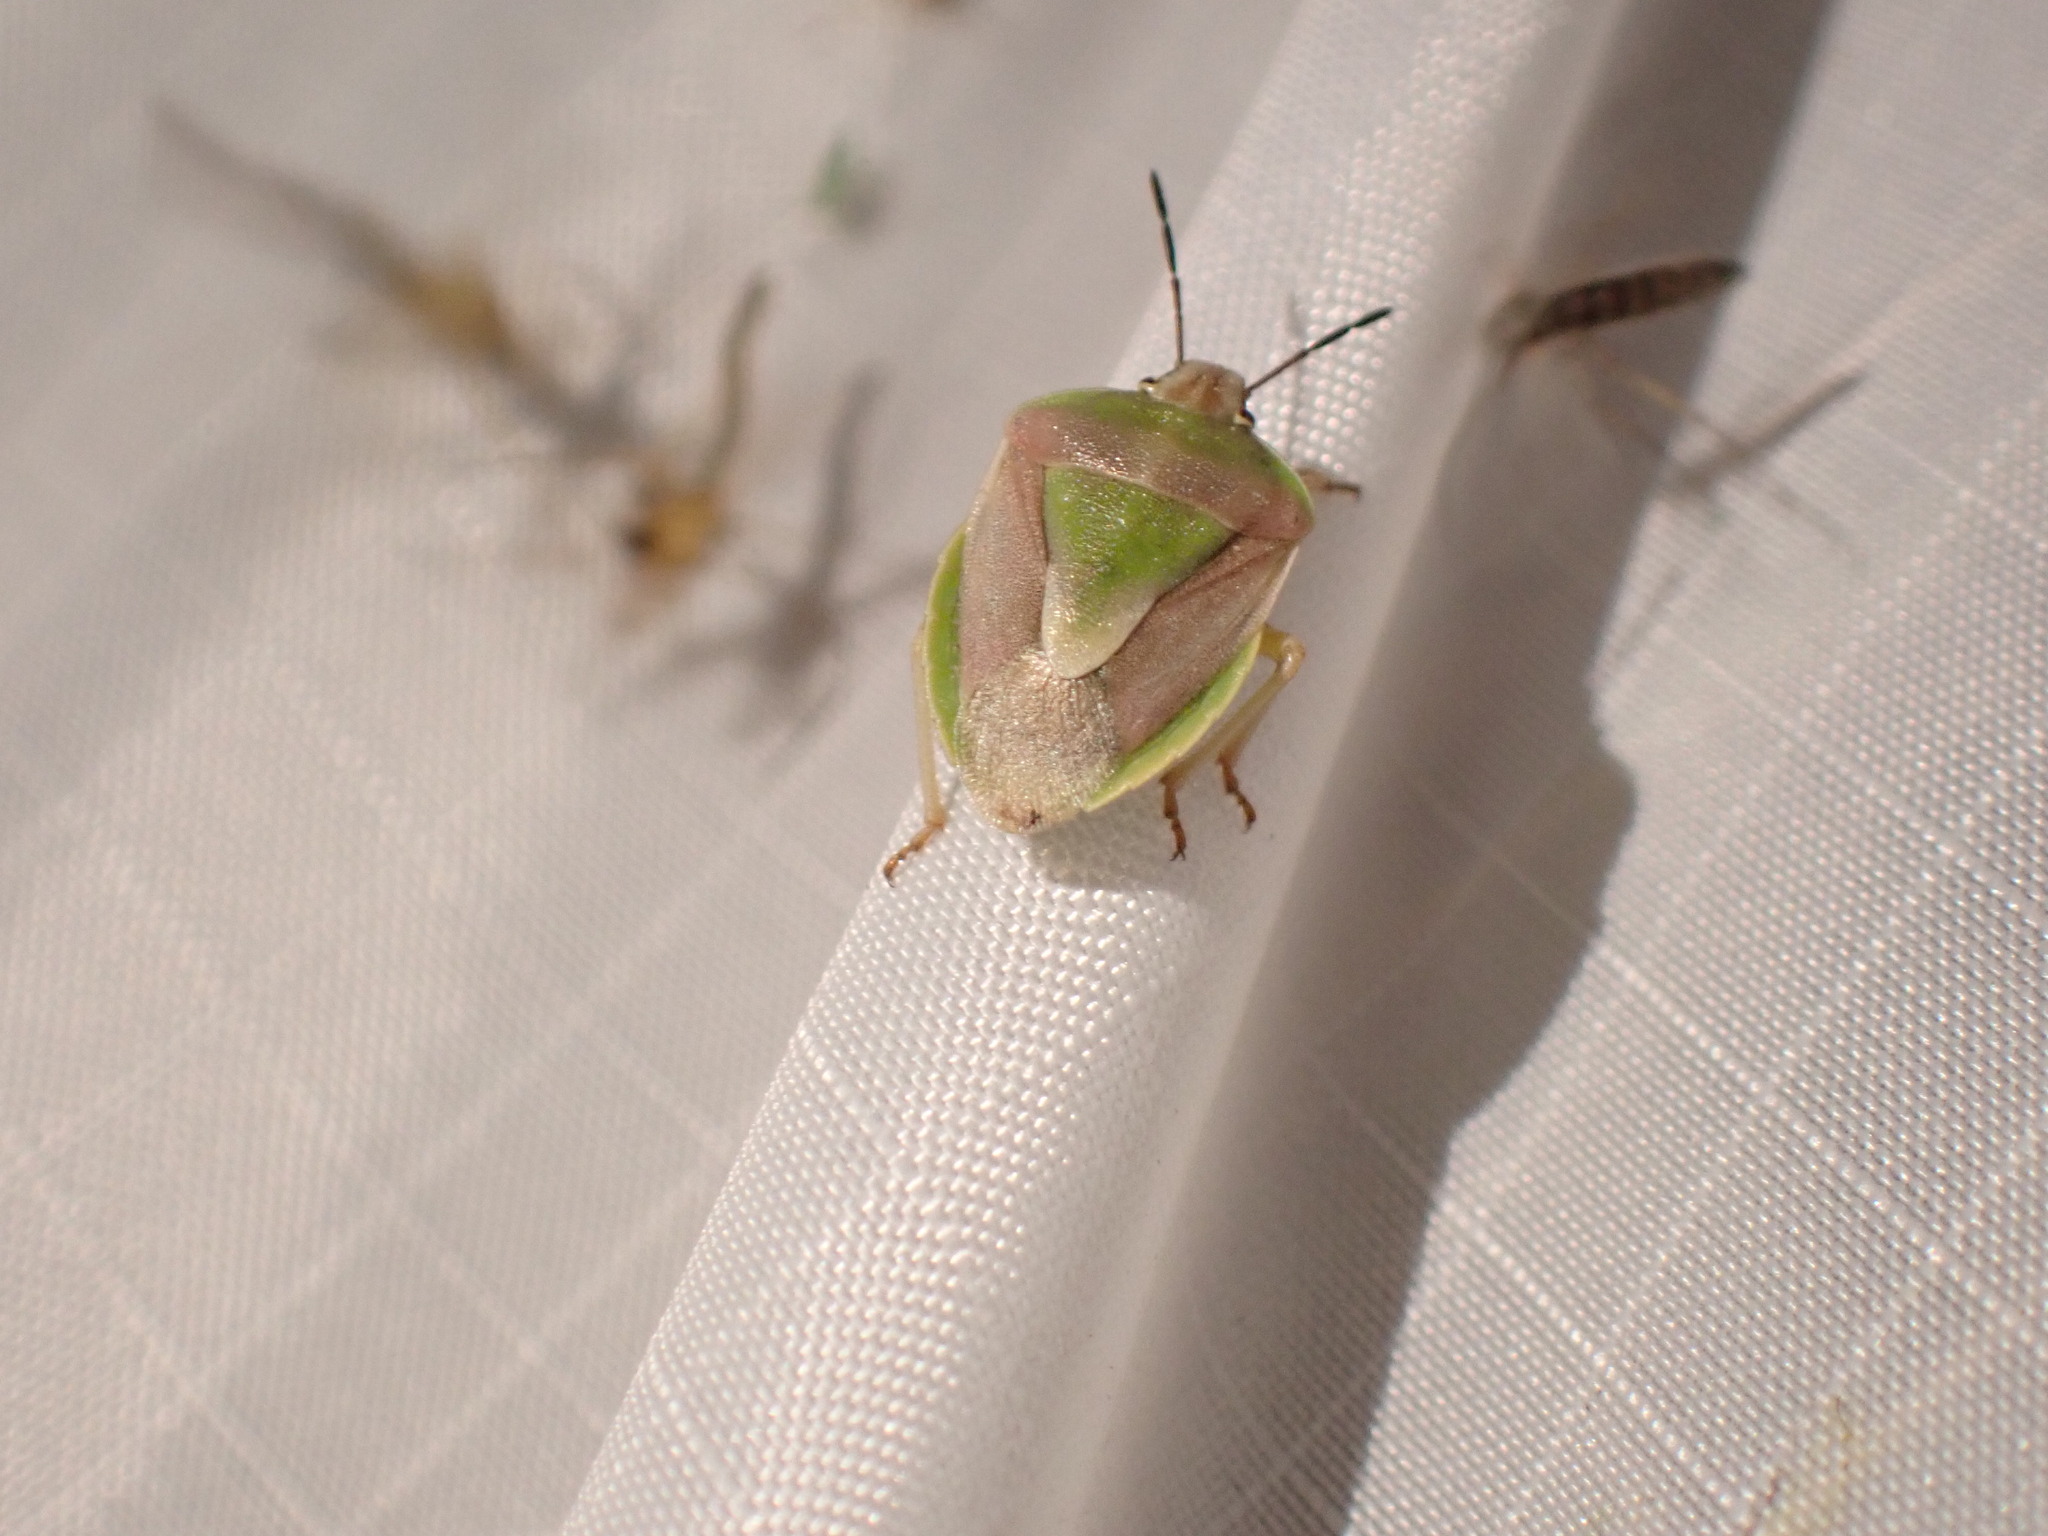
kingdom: Animalia
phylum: Arthropoda
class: Insecta
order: Hemiptera
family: Pentatomidae
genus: Antheminia
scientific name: Antheminia
